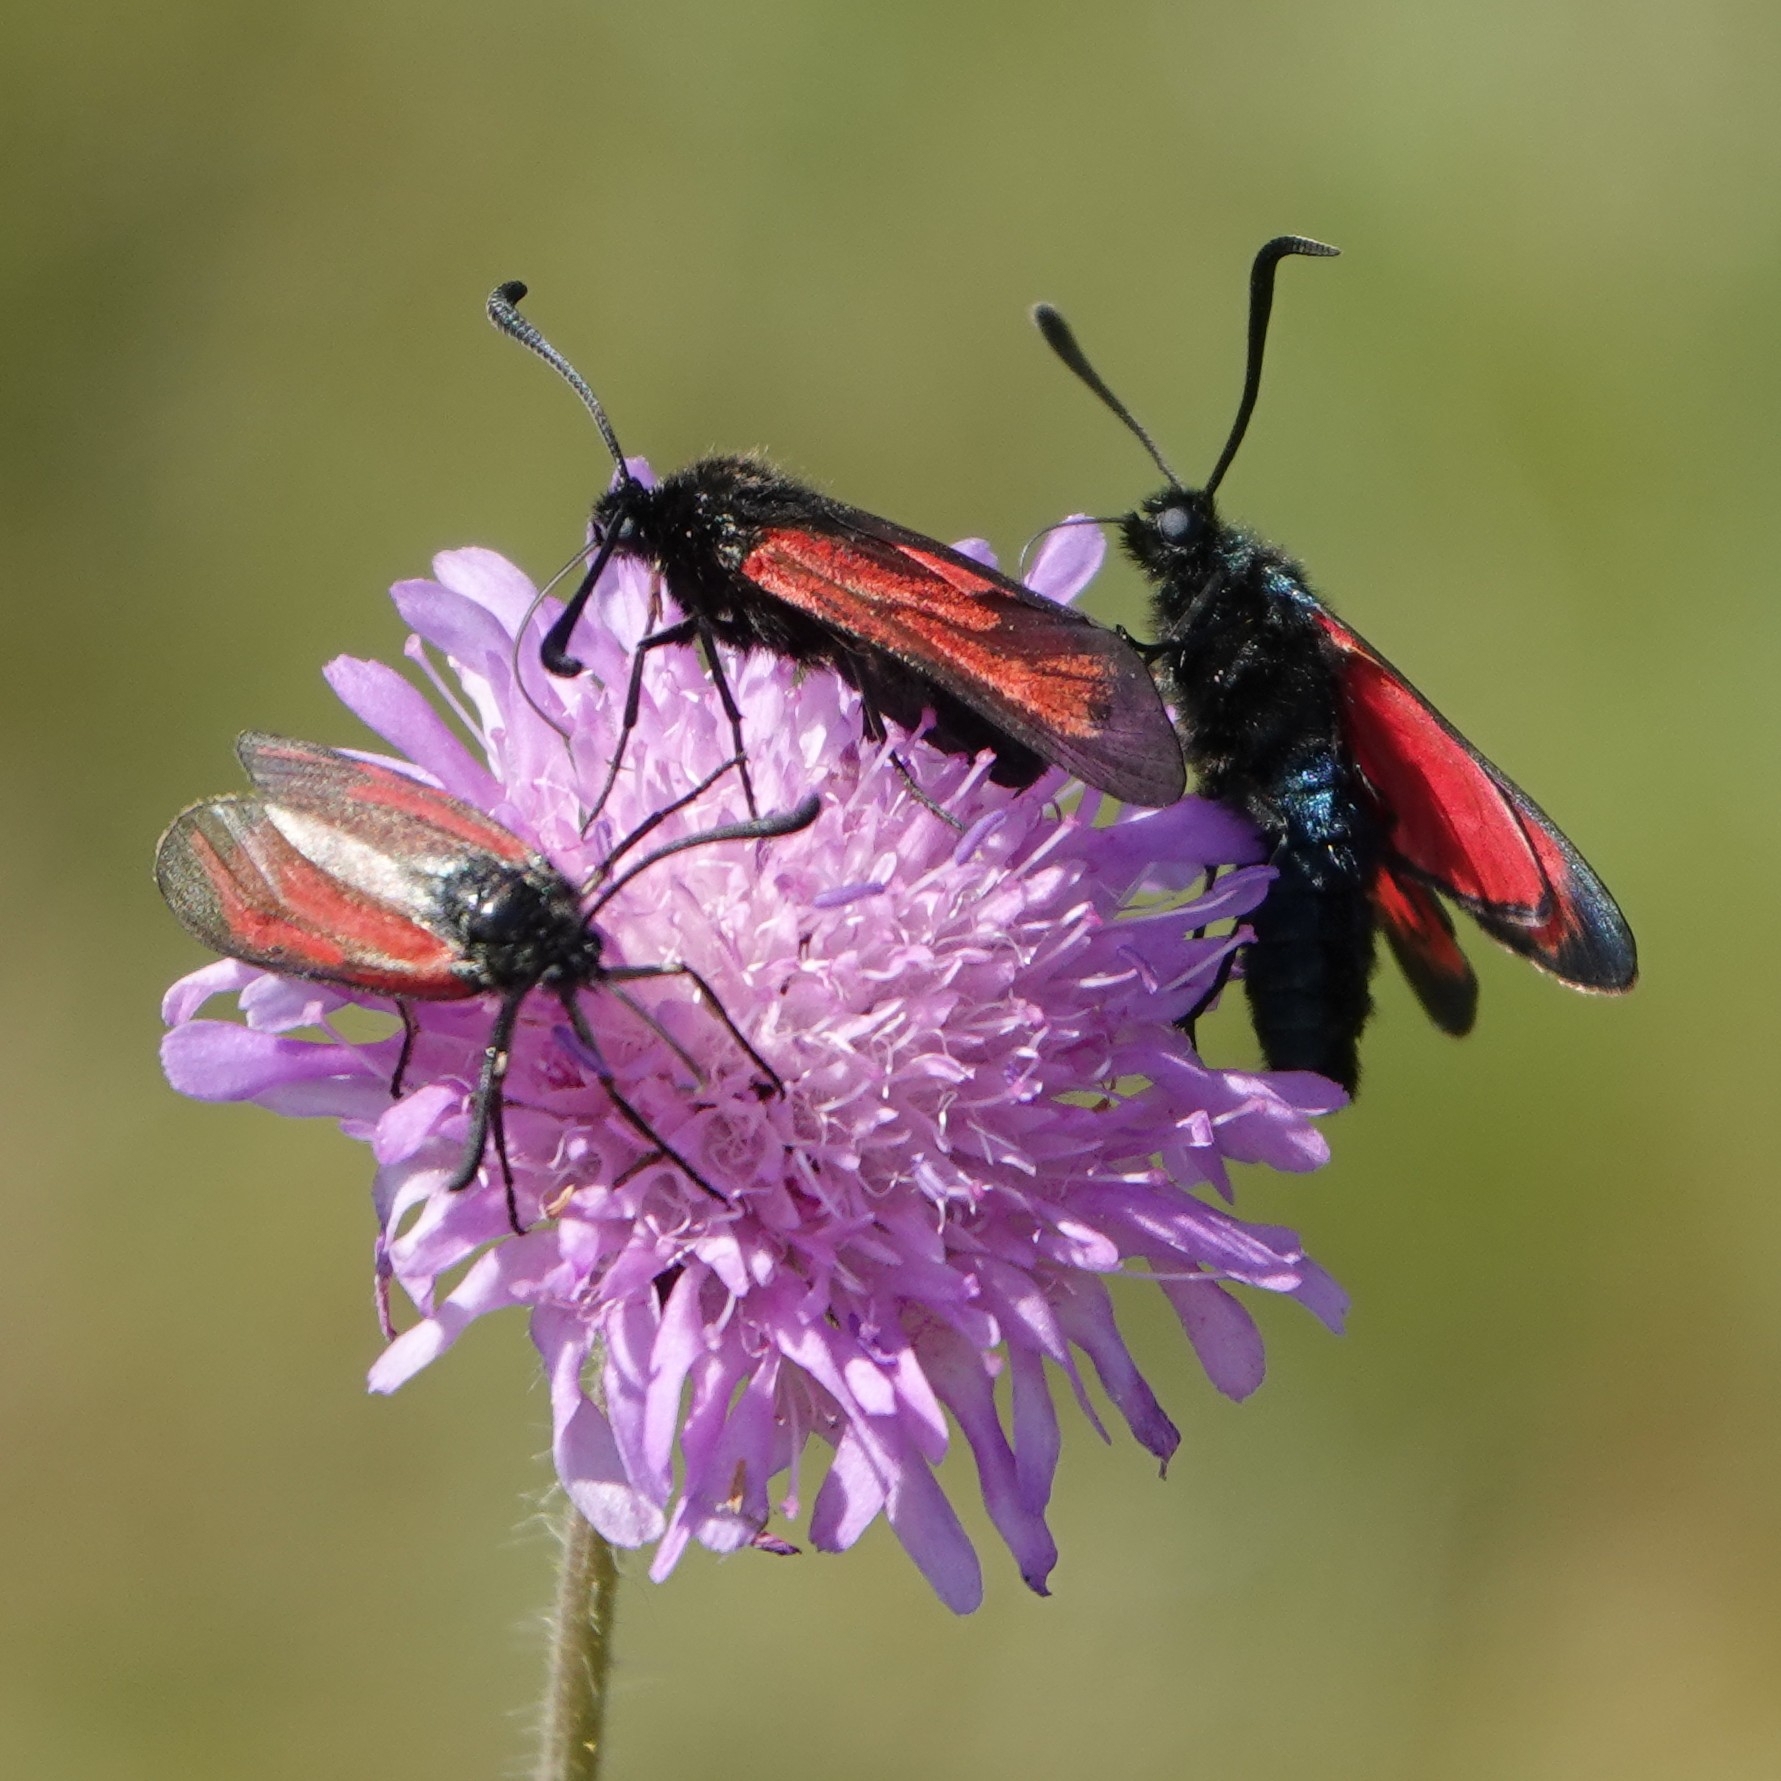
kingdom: Animalia
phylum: Arthropoda
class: Insecta
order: Lepidoptera
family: Zygaenidae
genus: Zygaena
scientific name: Zygaena filipendulae
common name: Six-spot burnet
